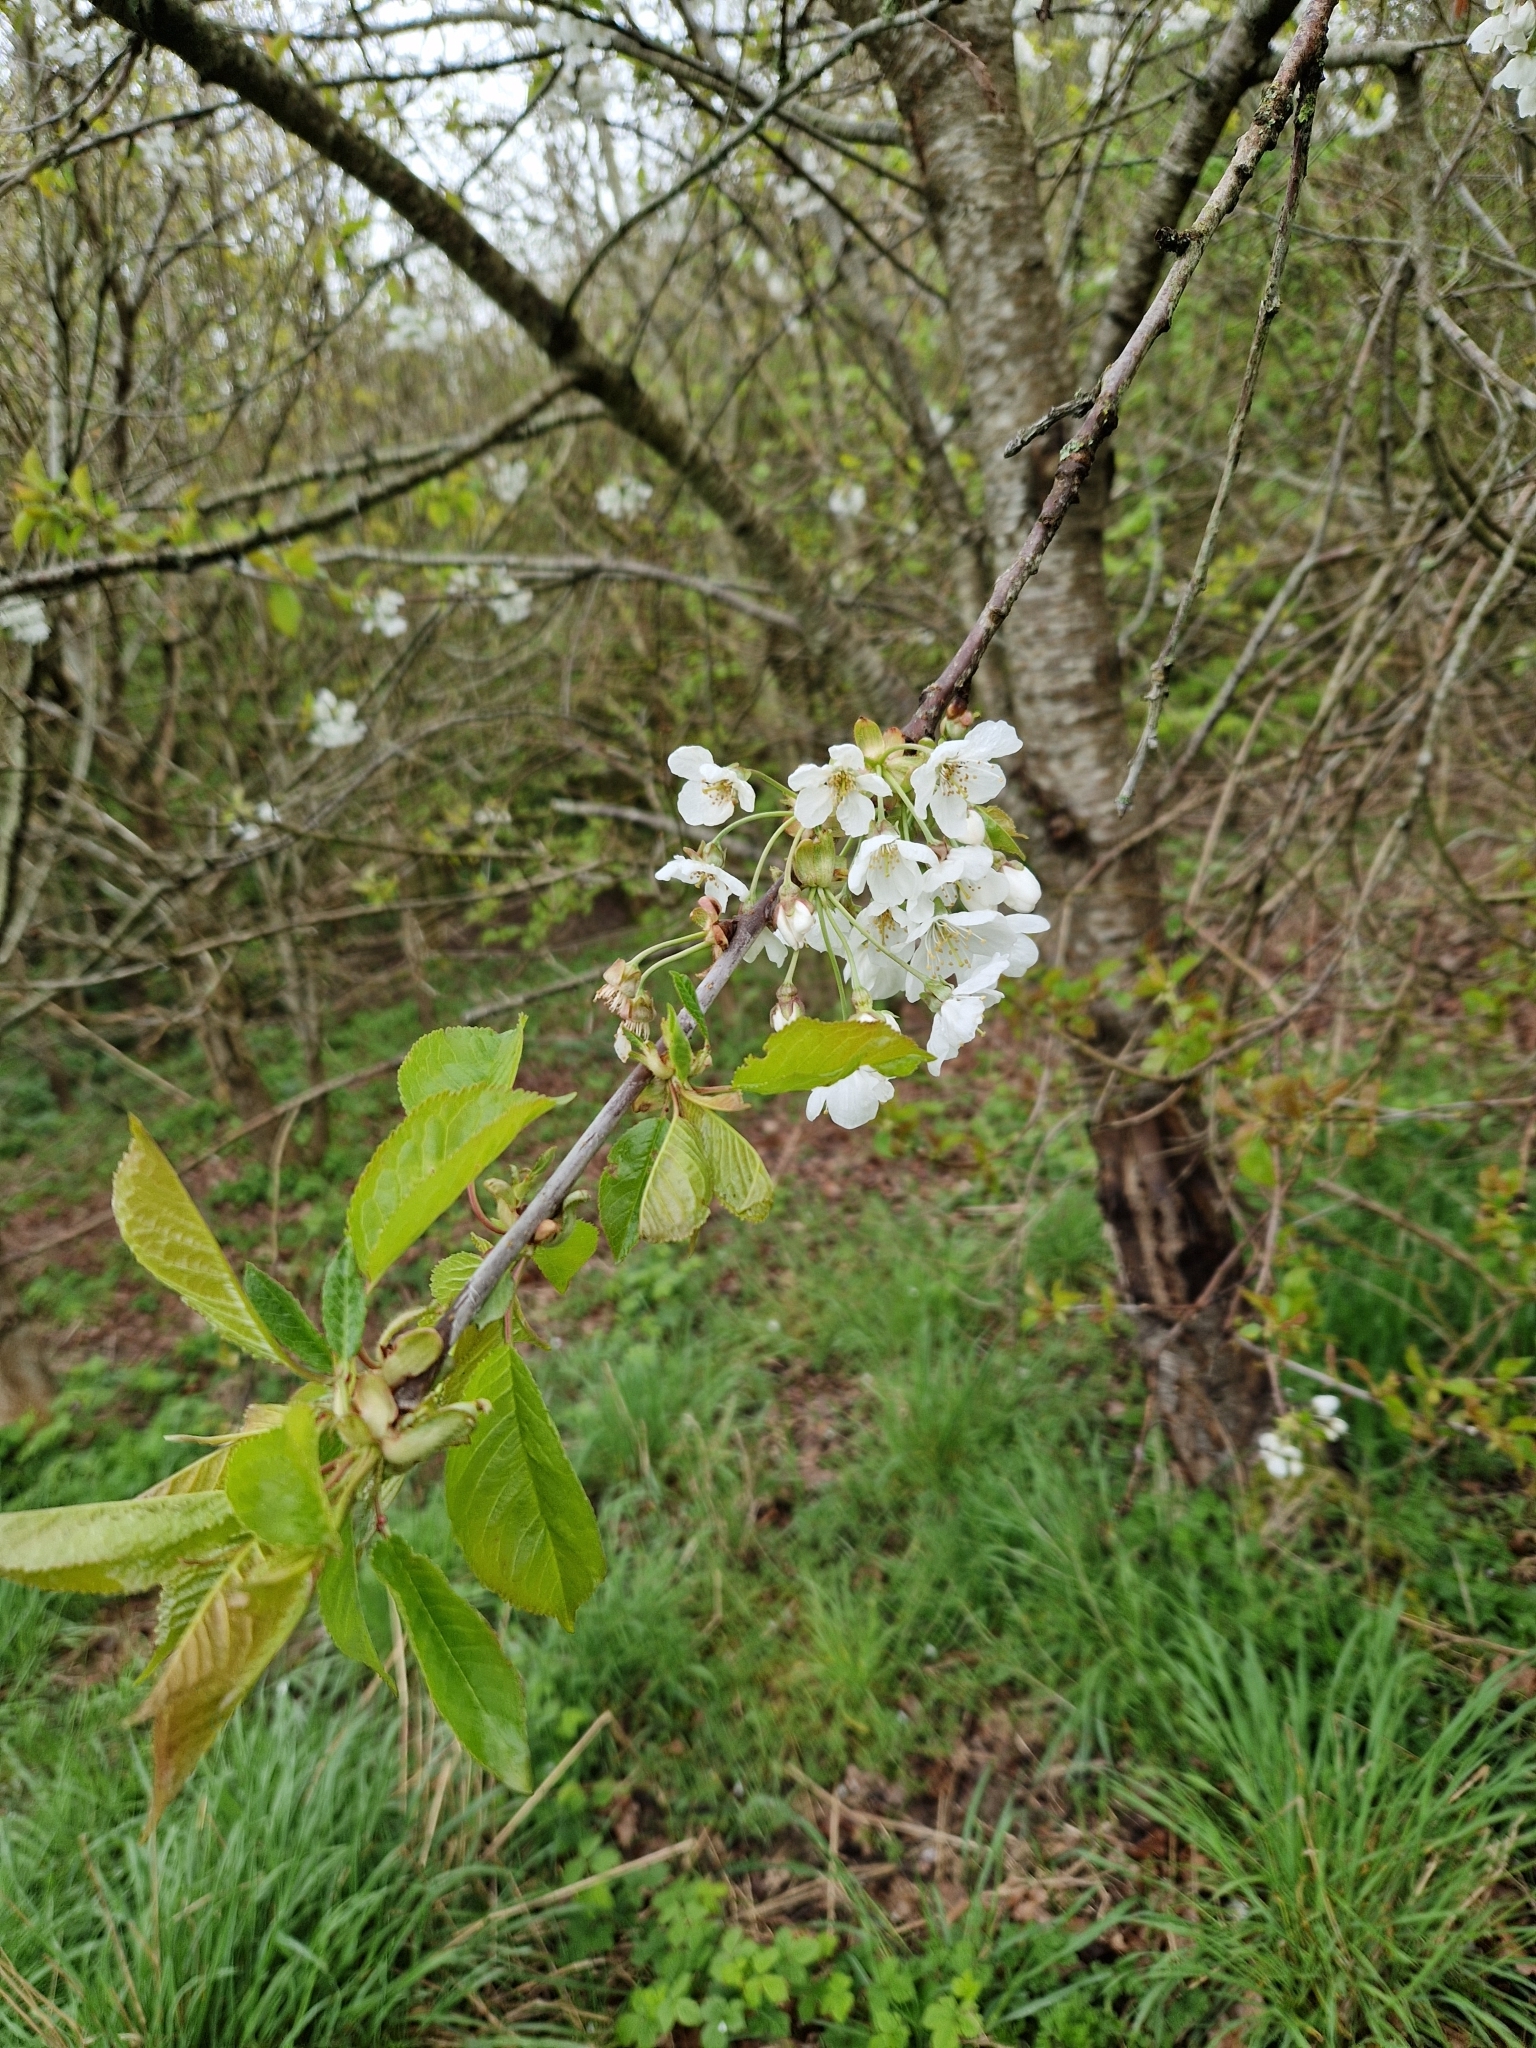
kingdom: Plantae
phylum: Tracheophyta
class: Magnoliopsida
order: Rosales
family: Rosaceae
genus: Prunus
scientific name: Prunus avium
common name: Sweet cherry
